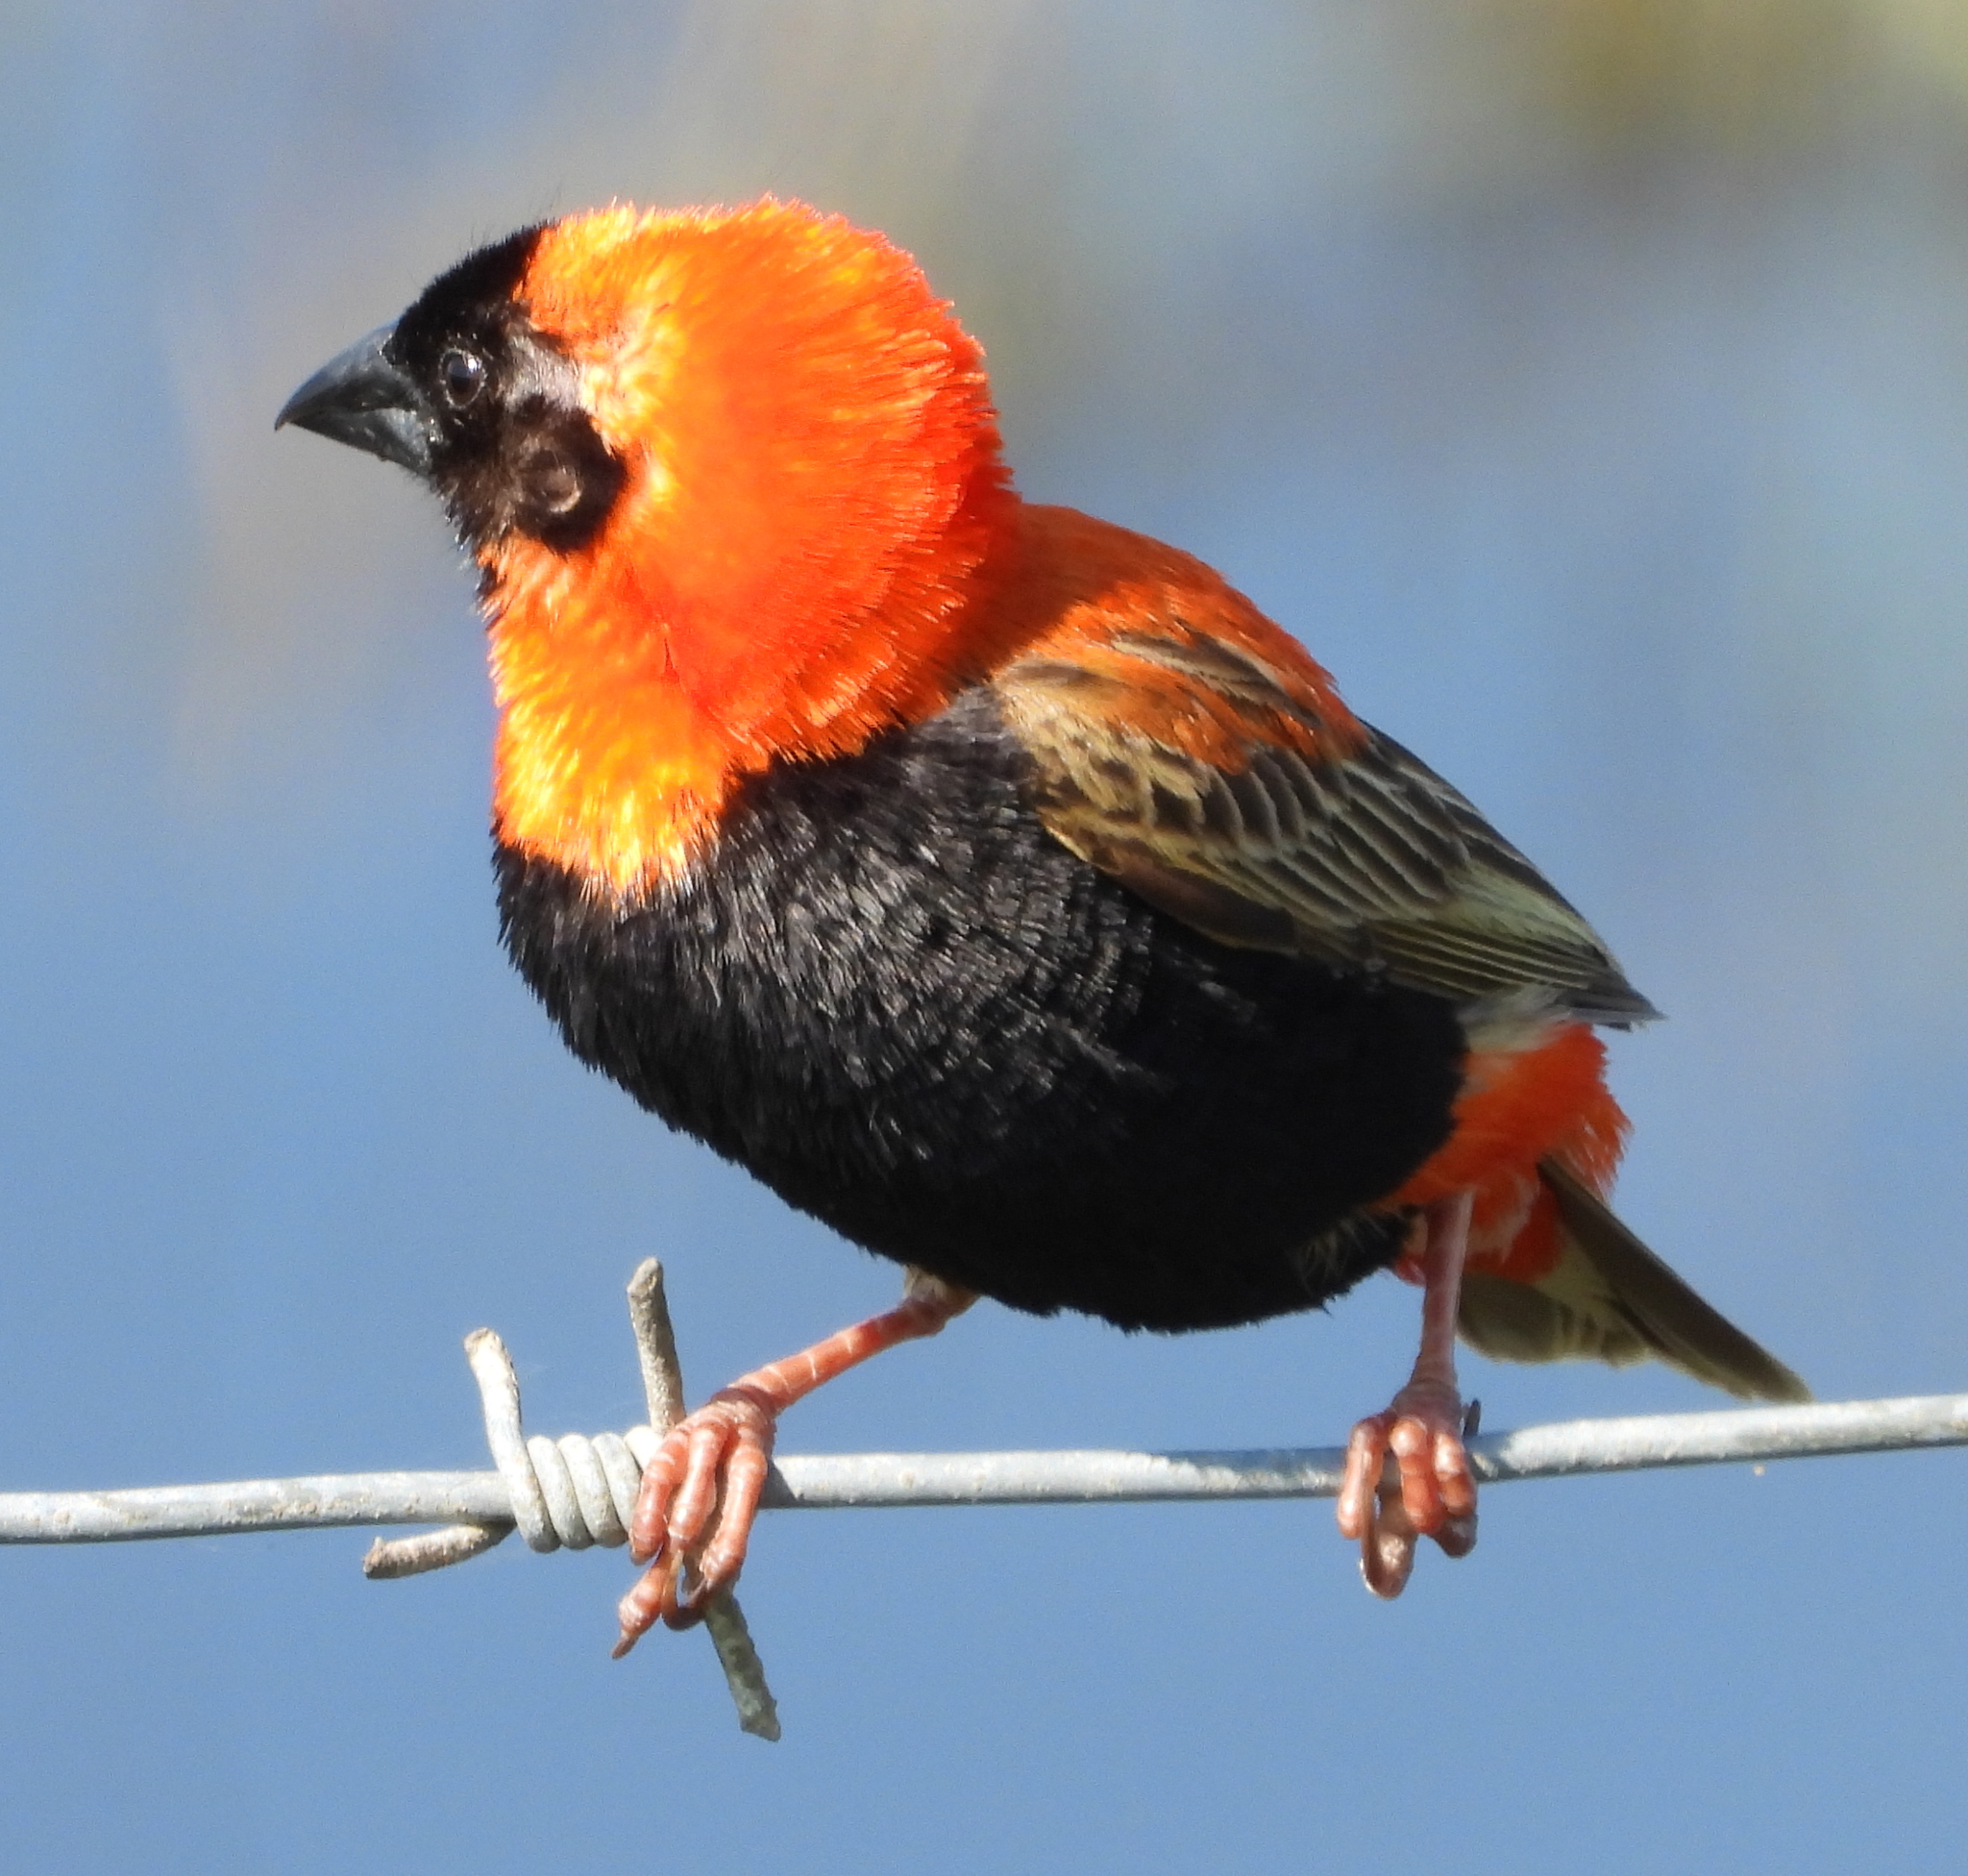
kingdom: Animalia
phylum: Chordata
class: Aves
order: Passeriformes
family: Ploceidae
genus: Euplectes
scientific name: Euplectes orix
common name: Southern red bishop
